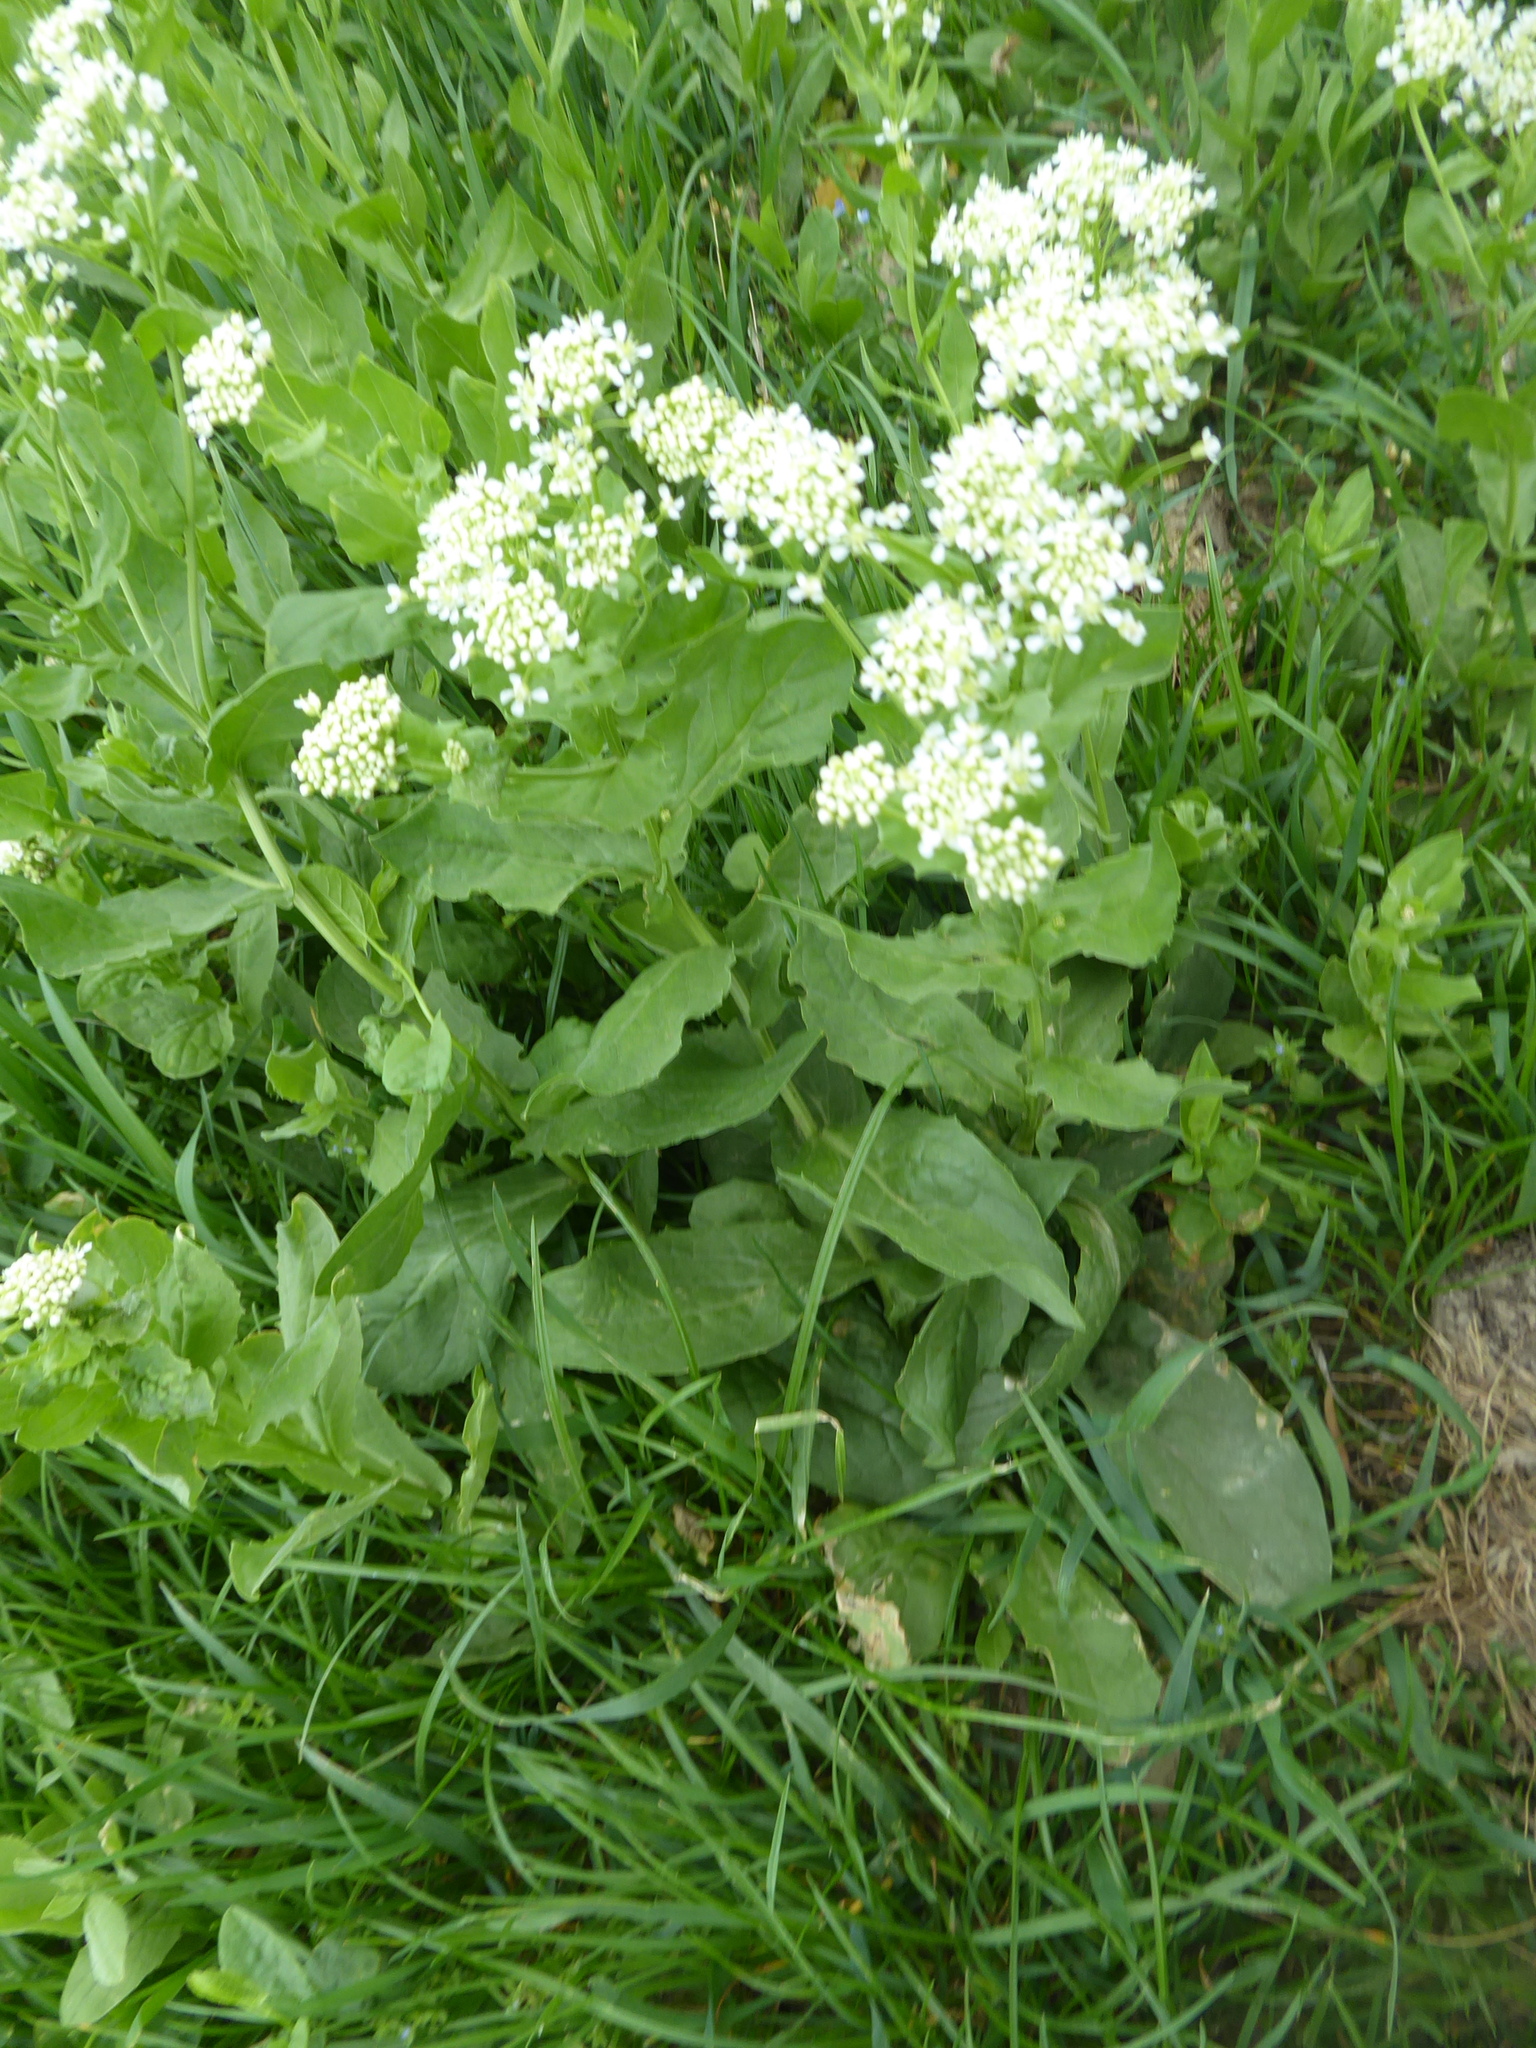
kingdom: Plantae
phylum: Tracheophyta
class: Magnoliopsida
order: Brassicales
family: Brassicaceae
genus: Lepidium
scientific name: Lepidium draba
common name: Hoary cress
